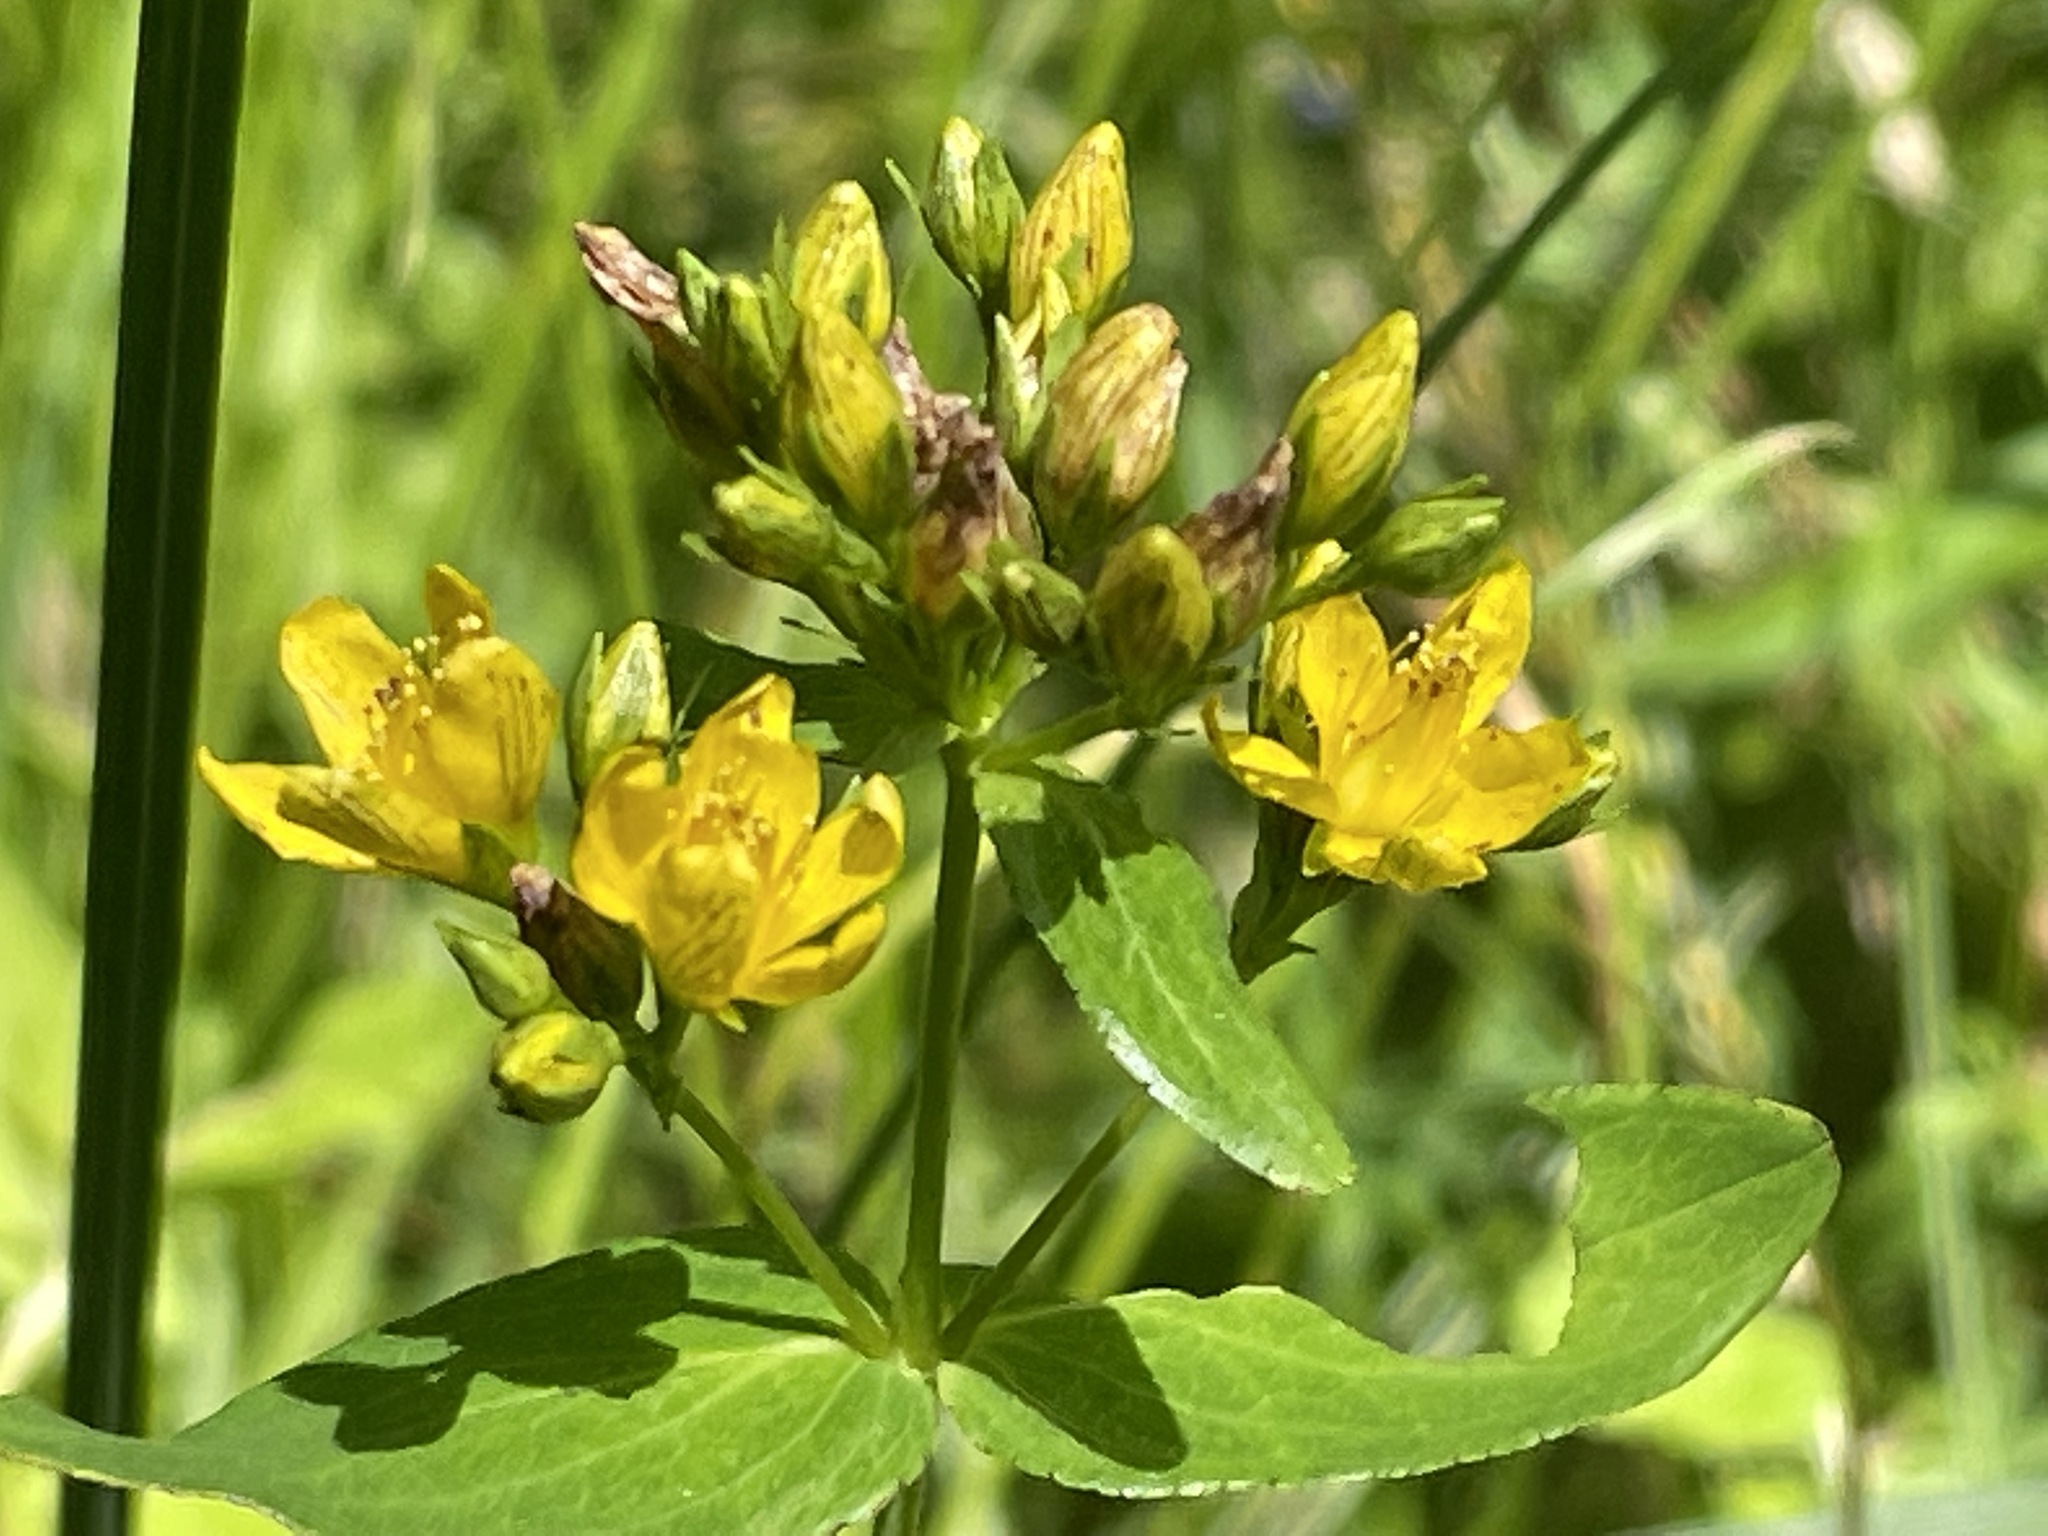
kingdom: Plantae
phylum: Tracheophyta
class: Magnoliopsida
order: Malpighiales
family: Hypericaceae
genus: Hypericum
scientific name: Hypericum punctatum
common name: Spotted st. john's-wort
